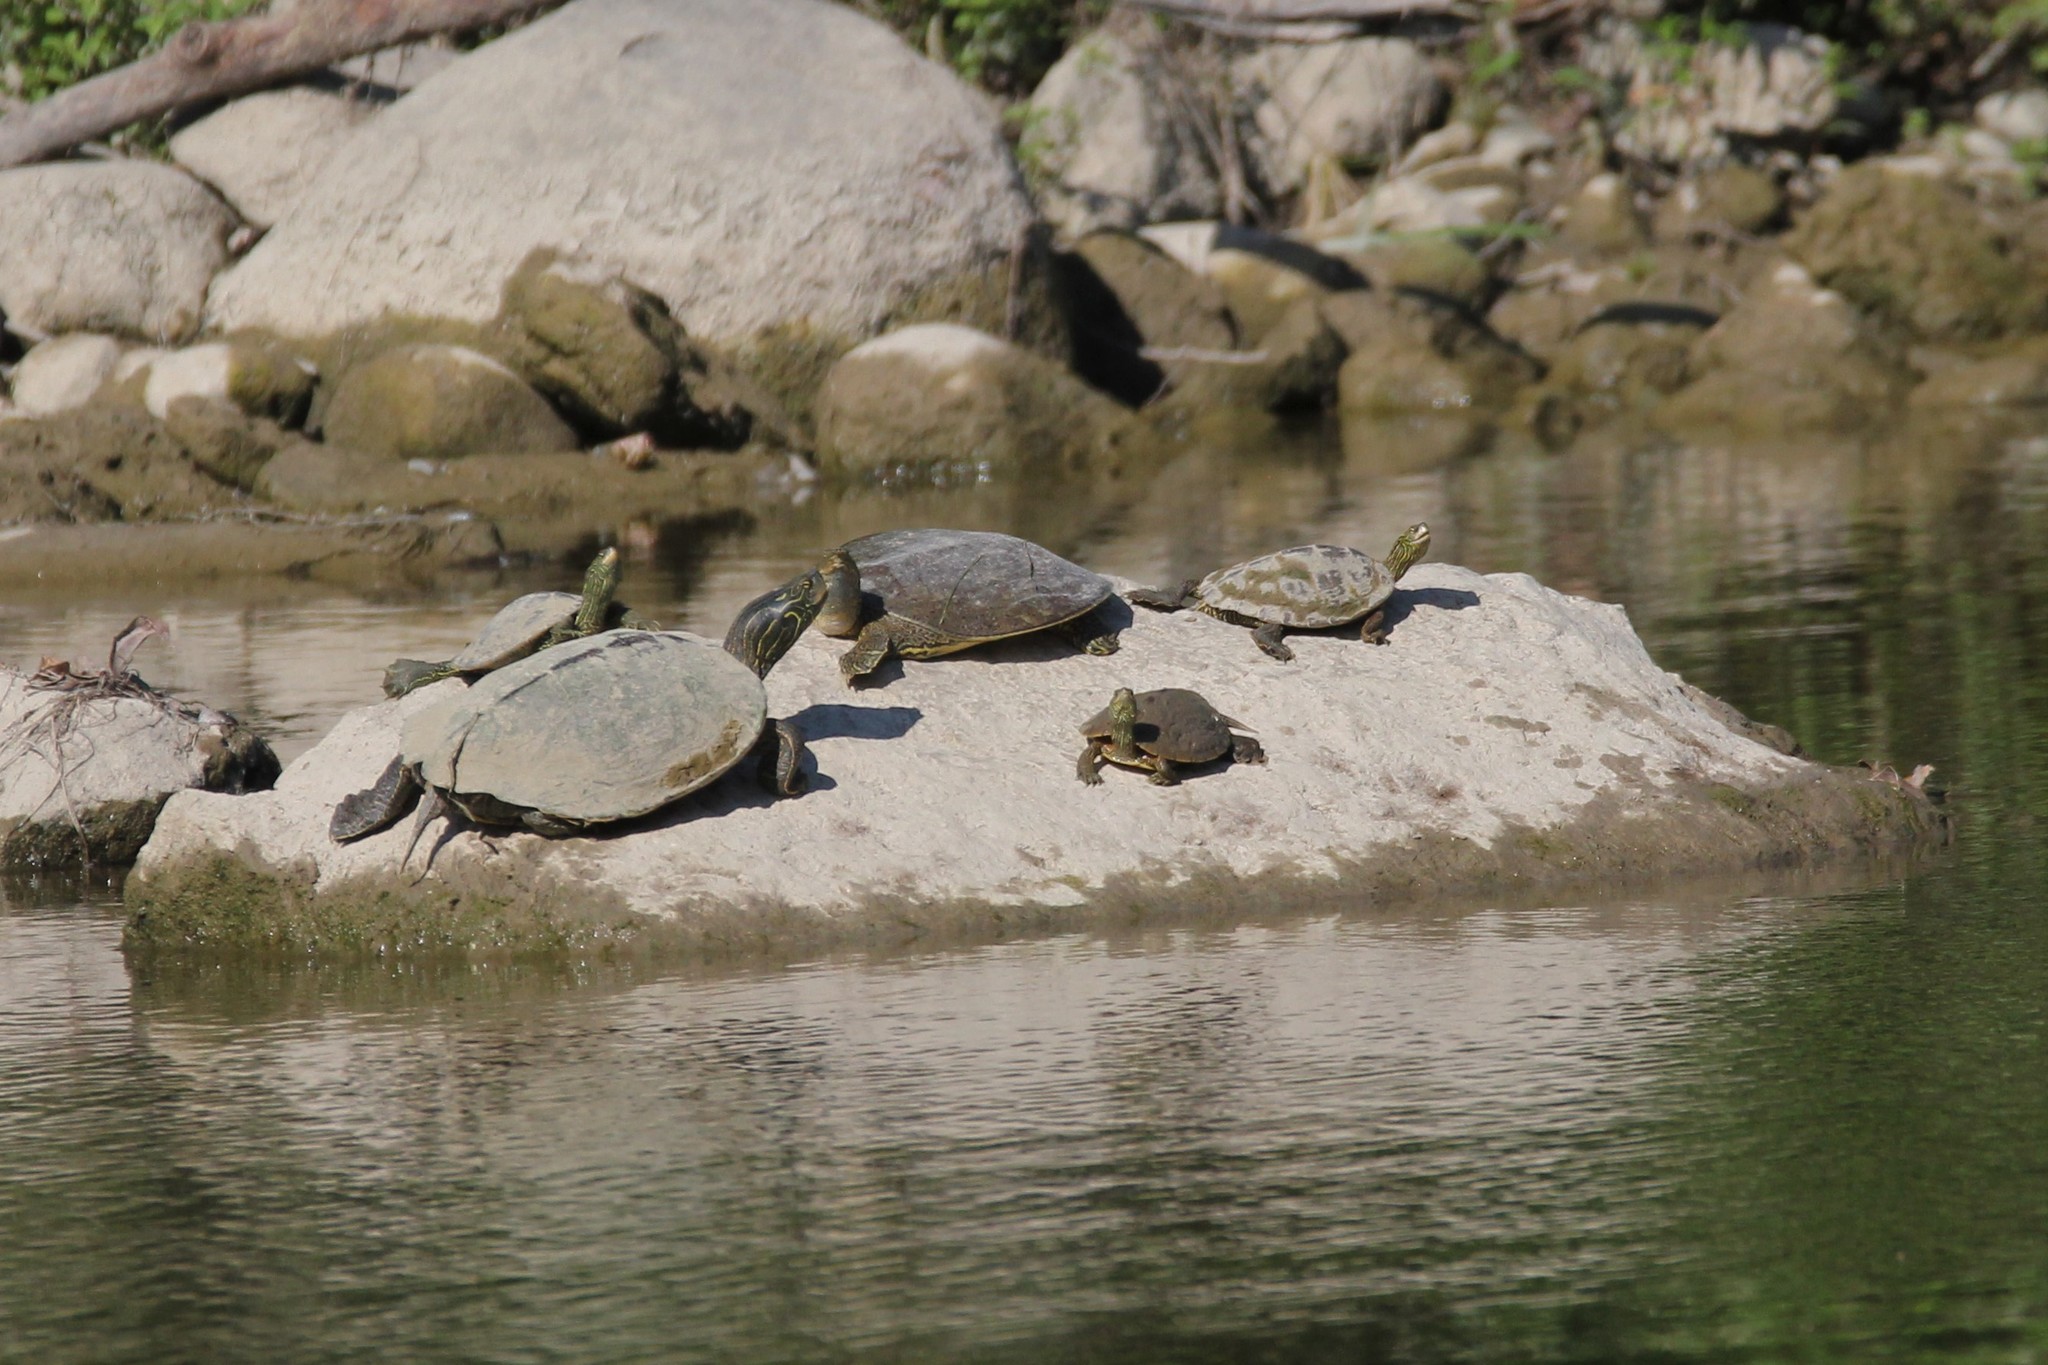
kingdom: Animalia
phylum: Chordata
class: Testudines
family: Trionychidae
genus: Apalone
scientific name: Apalone spinifera
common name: Spiny softshell turtle
